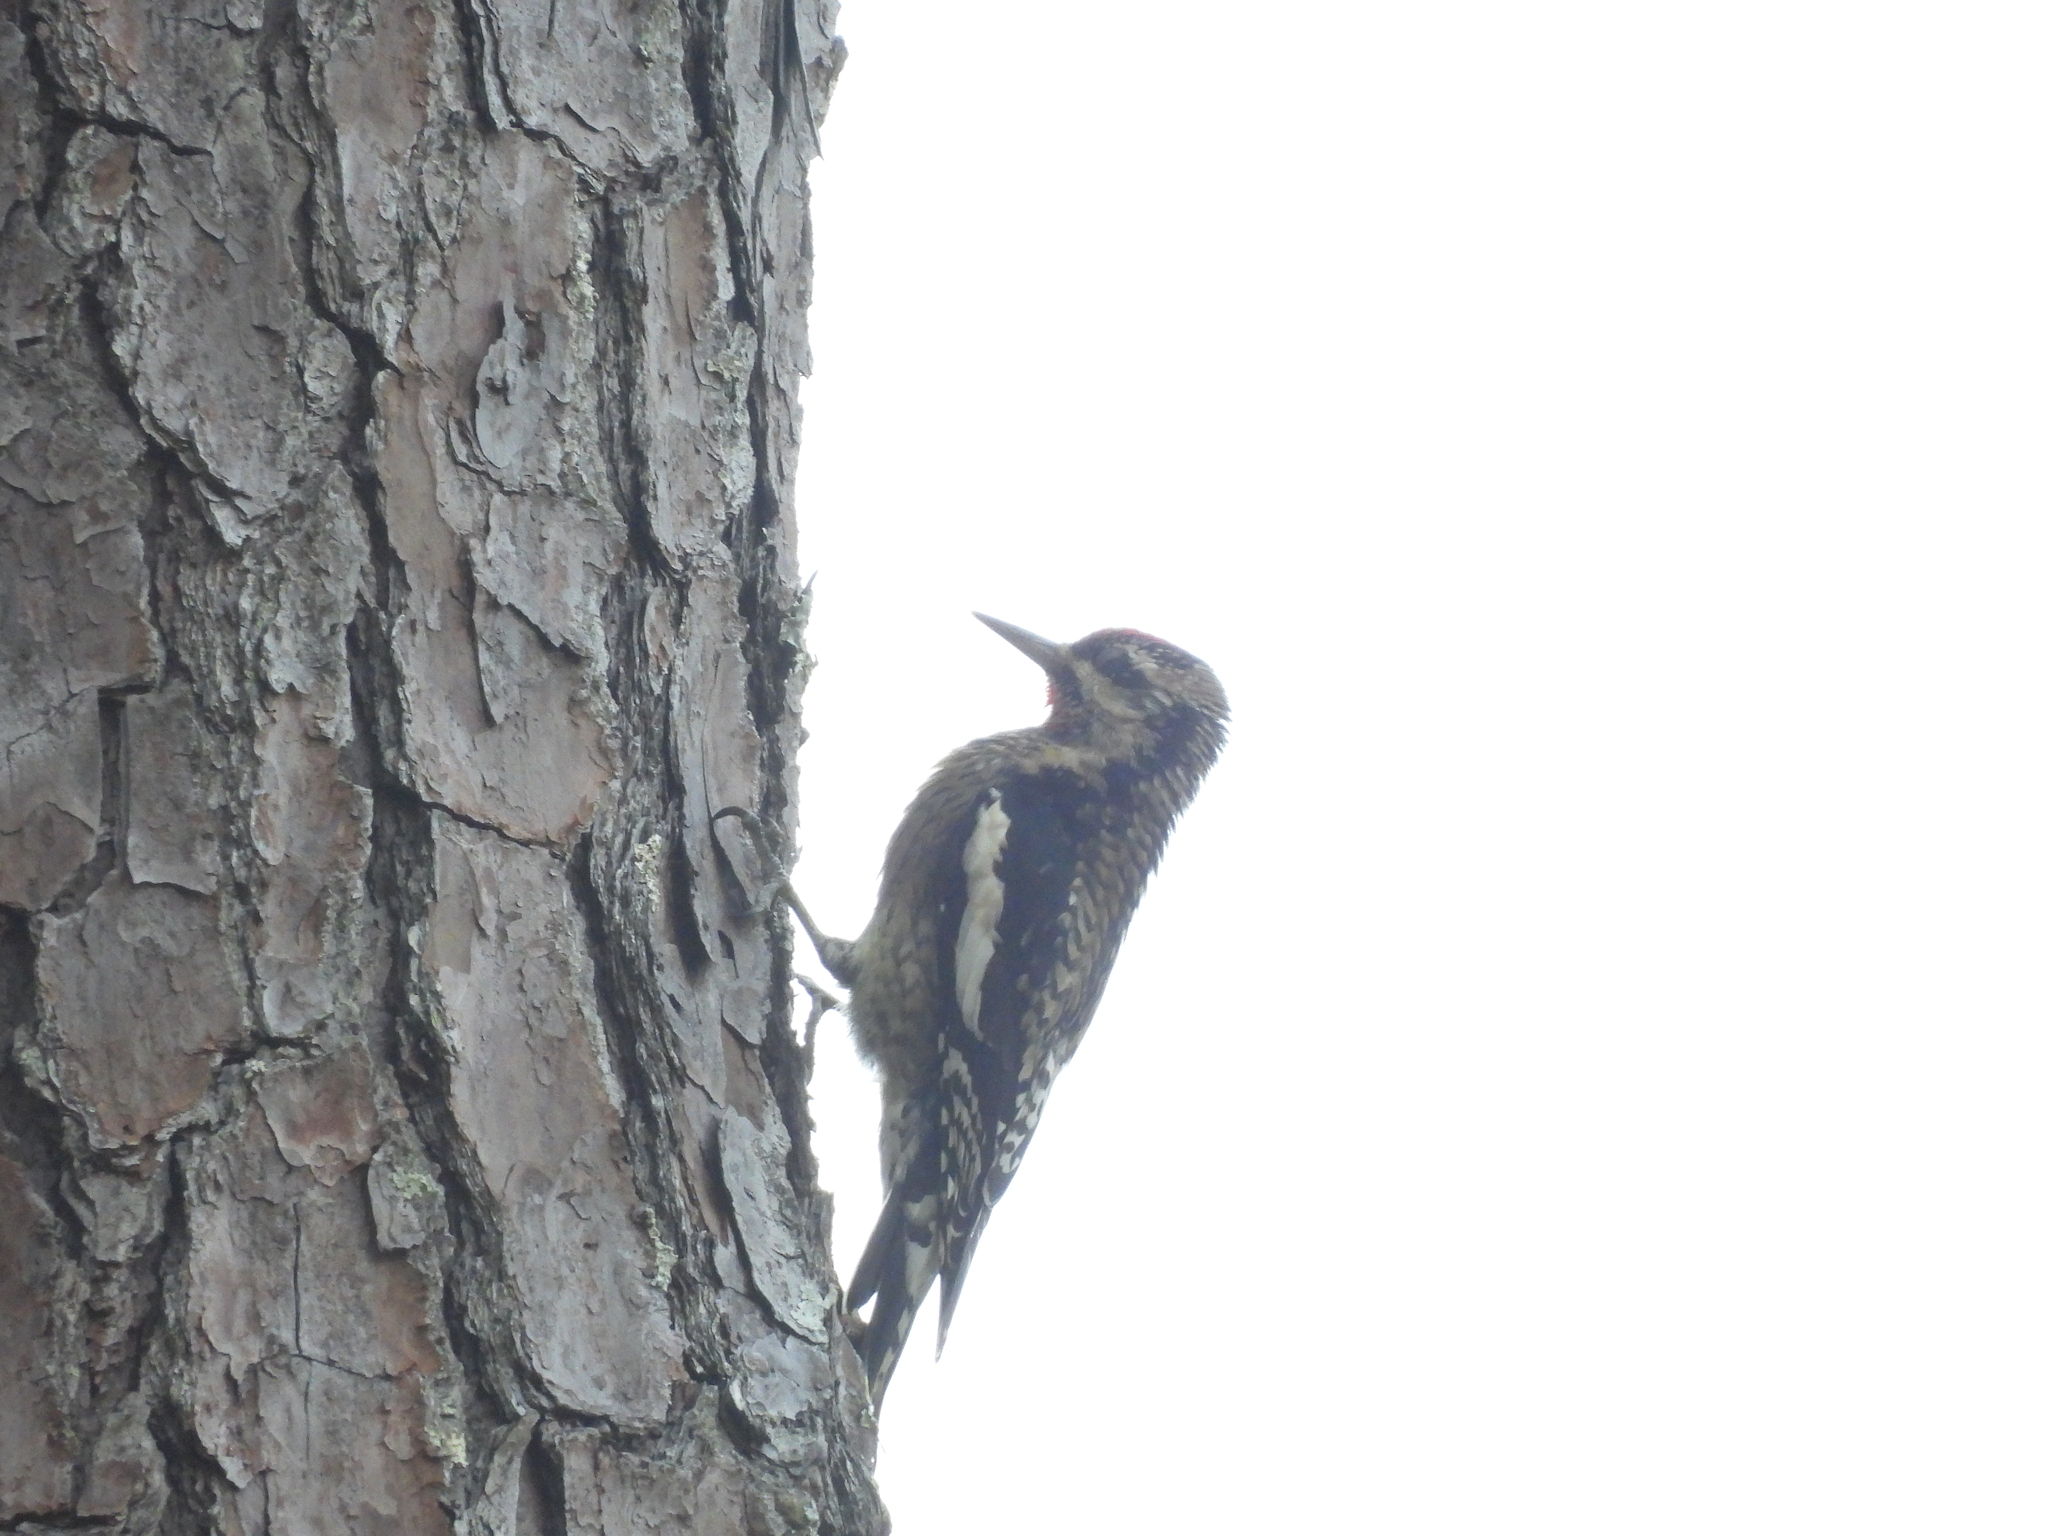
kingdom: Animalia
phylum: Chordata
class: Aves
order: Piciformes
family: Picidae
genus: Sphyrapicus
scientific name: Sphyrapicus varius
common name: Yellow-bellied sapsucker
